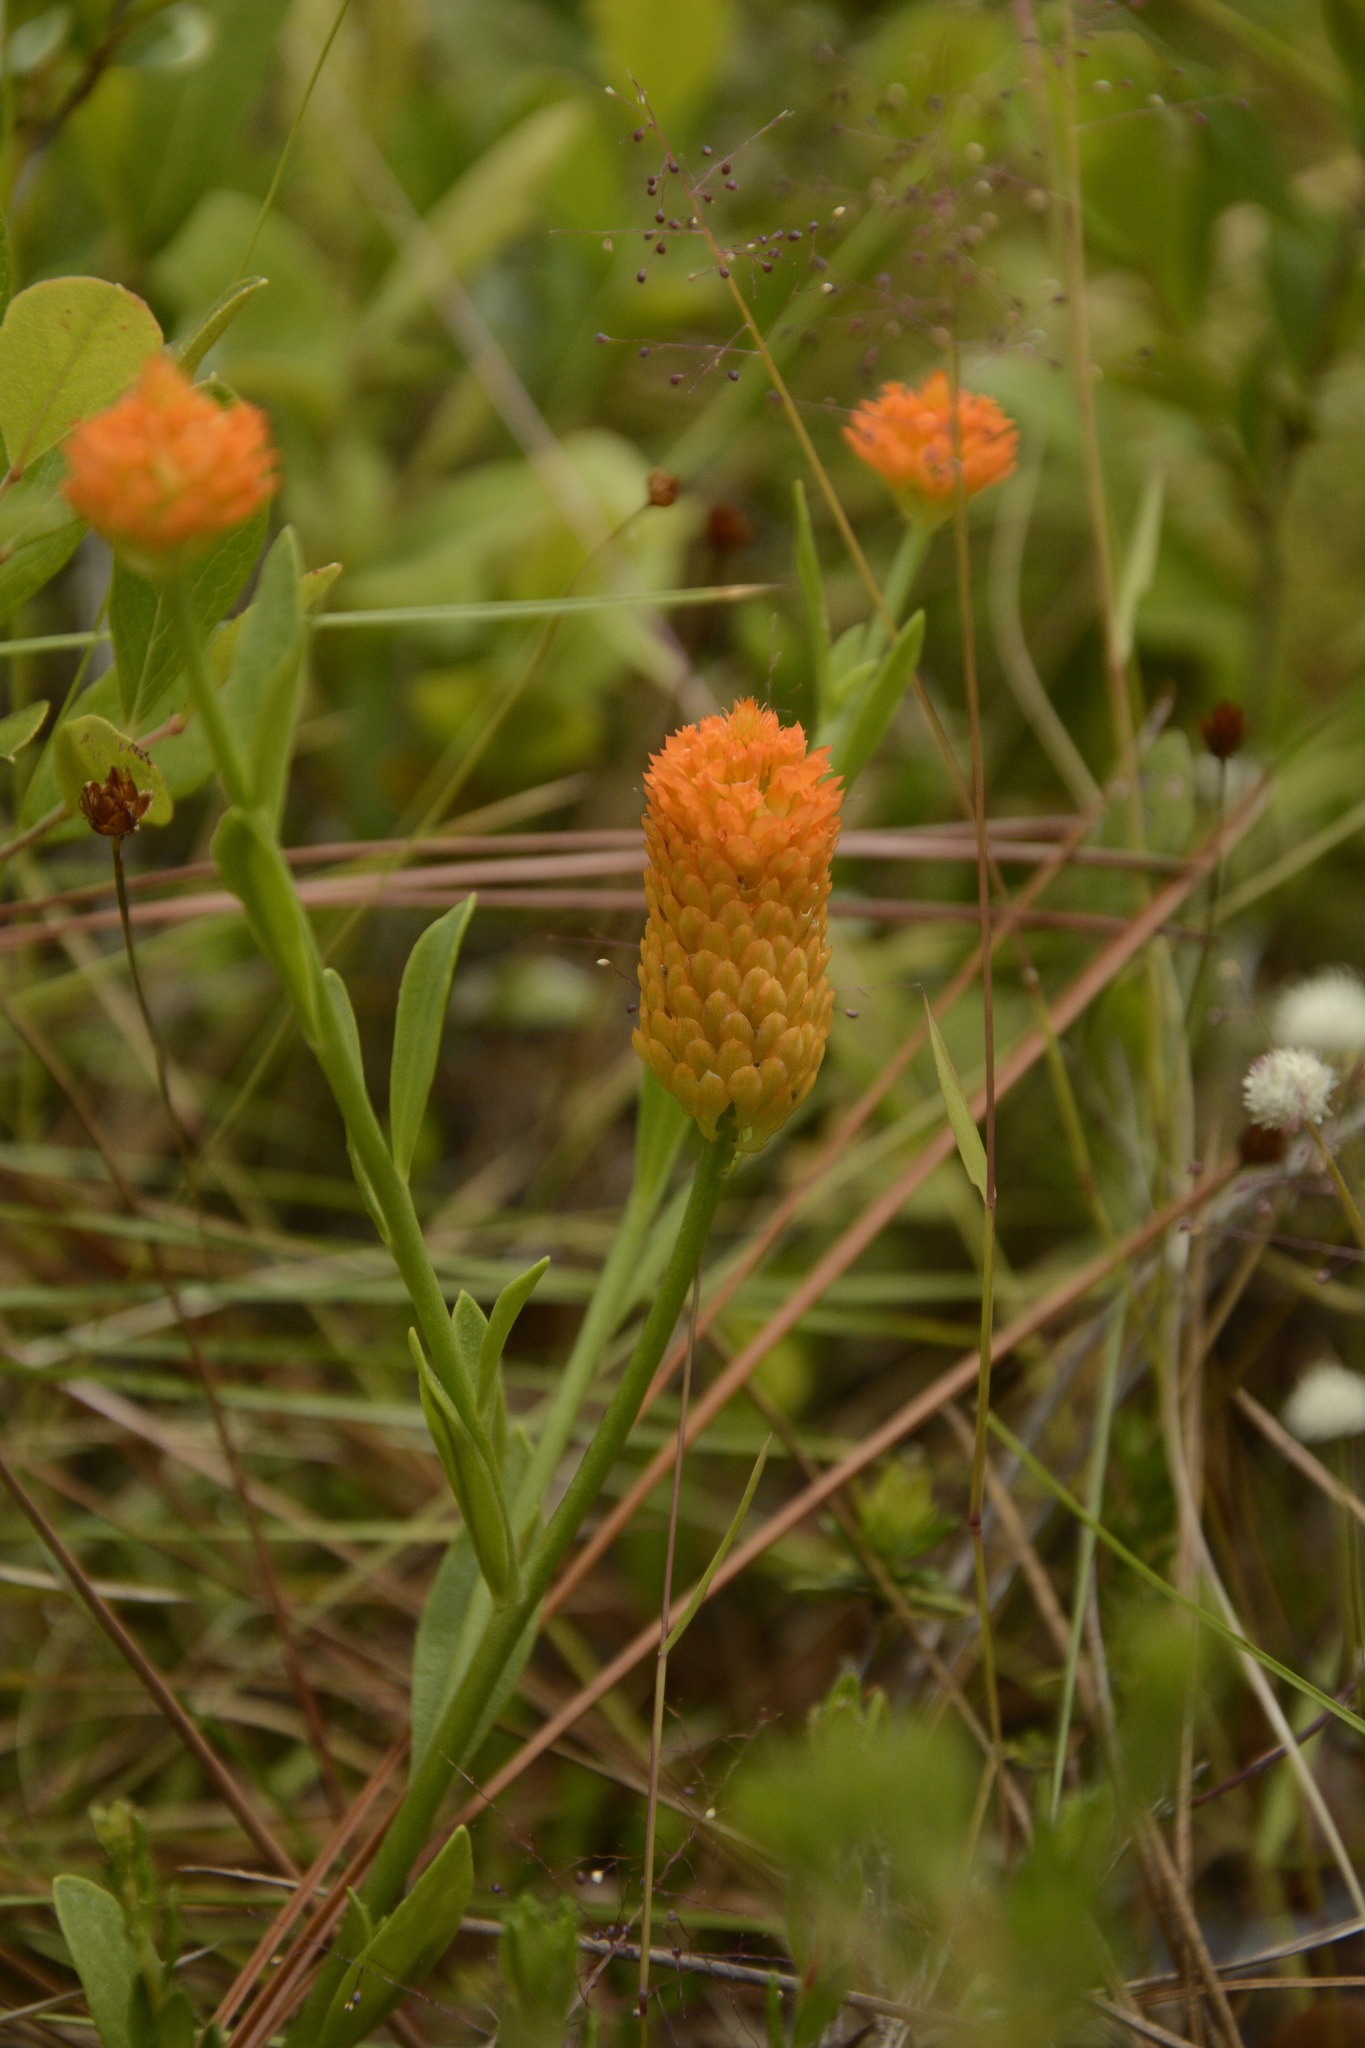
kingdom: Plantae
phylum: Tracheophyta
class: Magnoliopsida
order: Fabales
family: Polygalaceae
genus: Polygala
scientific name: Polygala lutea
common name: Orange milkwort
